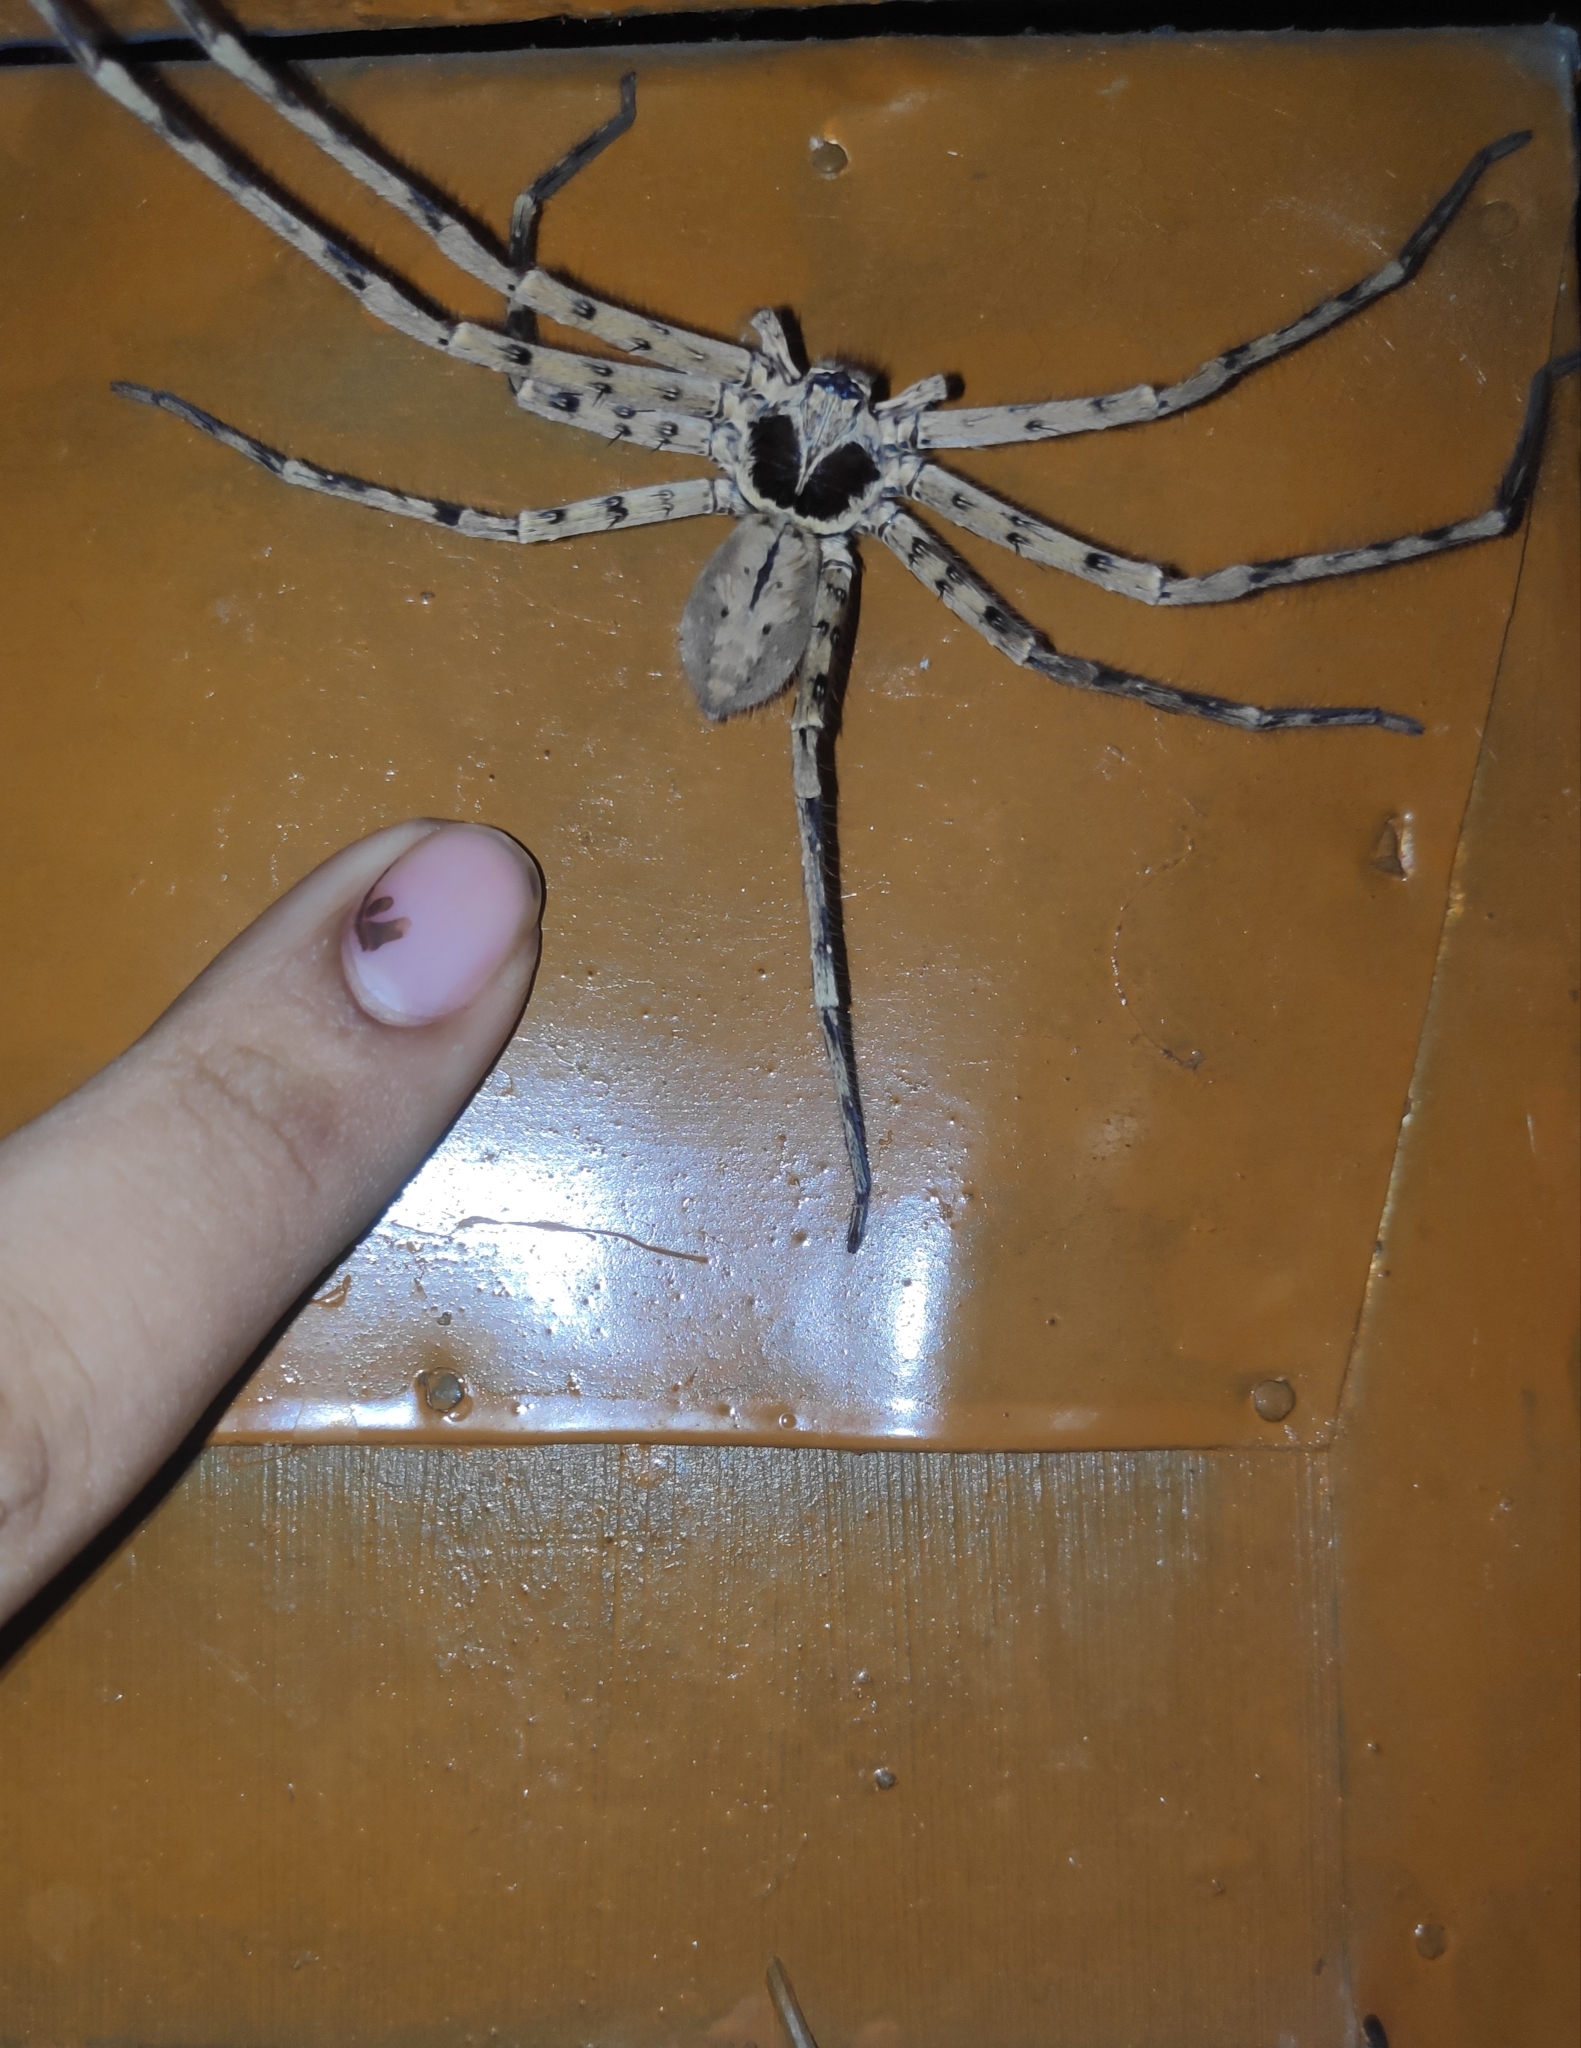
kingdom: Animalia
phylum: Arthropoda
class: Arachnida
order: Araneae
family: Sparassidae
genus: Heteropoda
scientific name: Heteropoda venatoria
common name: Huntsman spider
